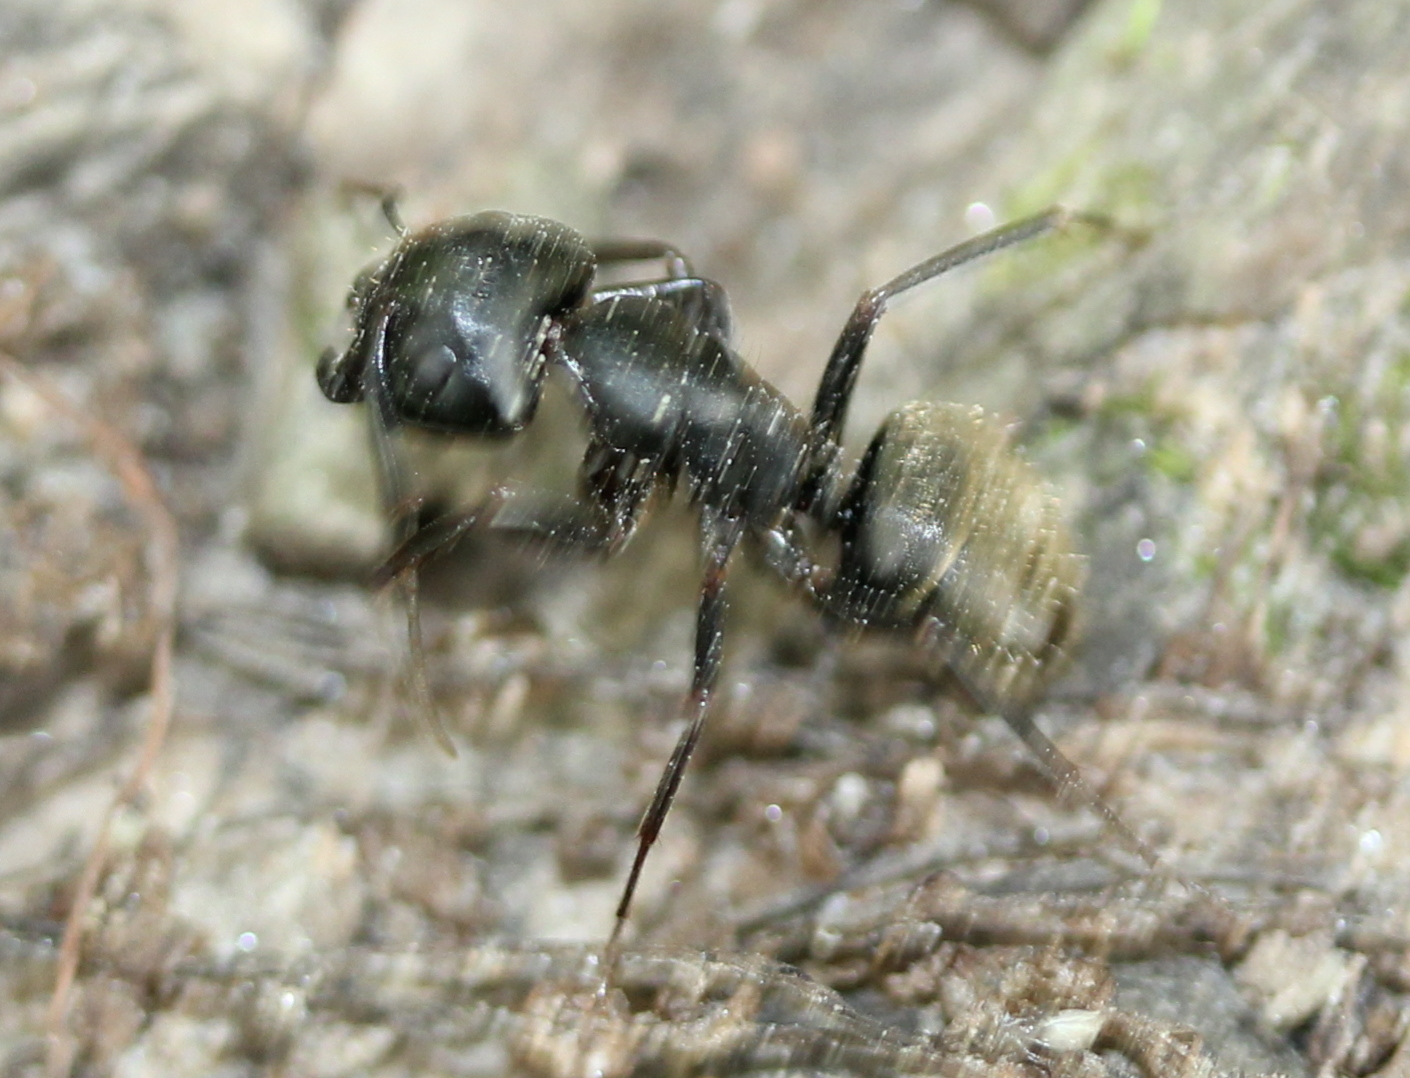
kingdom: Animalia
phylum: Arthropoda
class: Insecta
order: Hymenoptera
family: Formicidae
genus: Camponotus
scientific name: Camponotus pennsylvanicus
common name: Black carpenter ant
